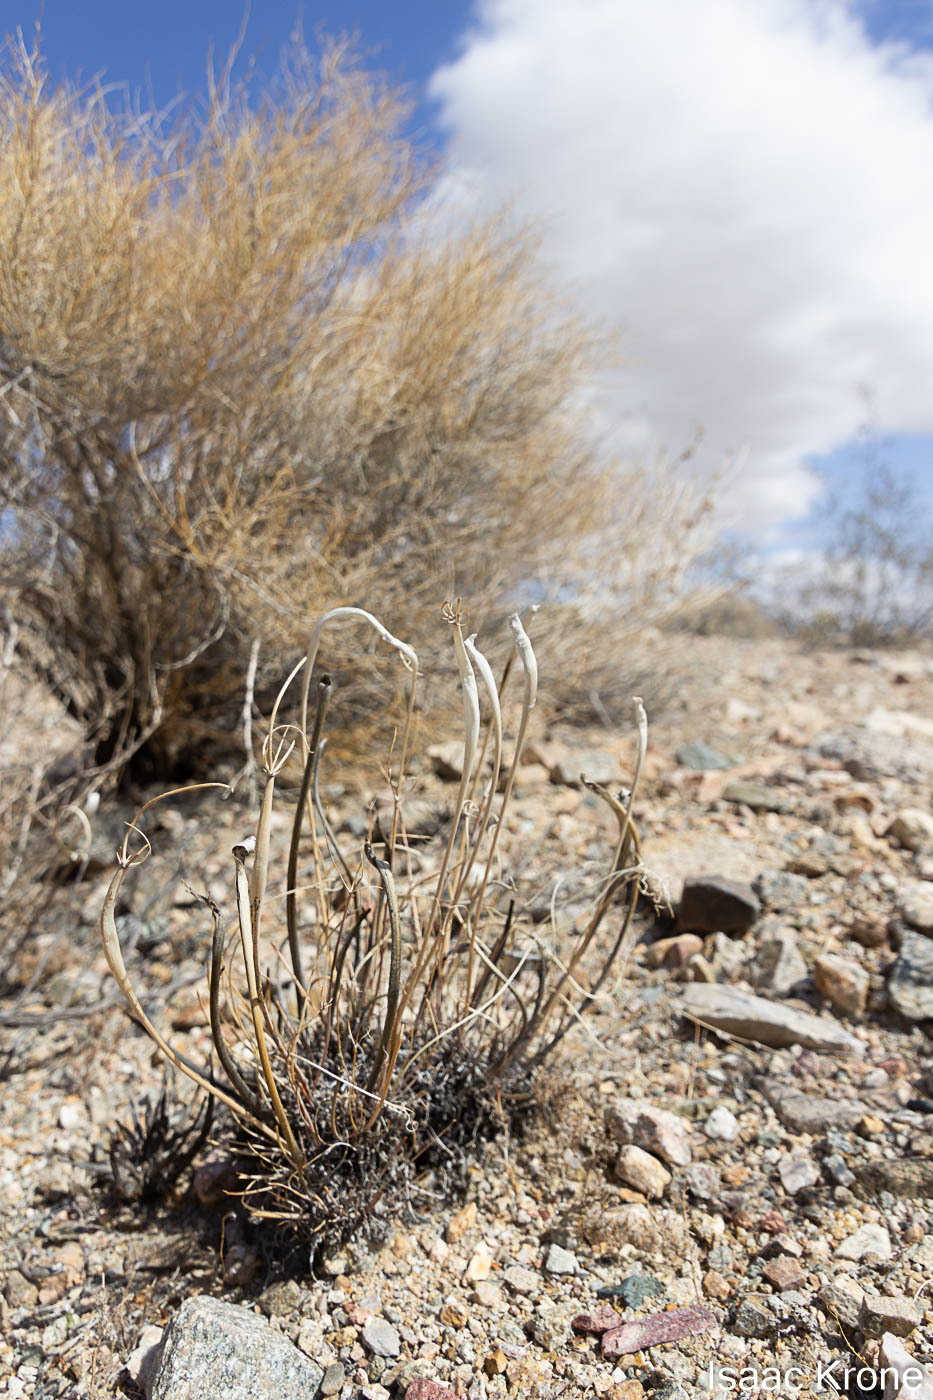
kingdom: Plantae
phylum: Tracheophyta
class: Magnoliopsida
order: Caryophyllales
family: Polygonaceae
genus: Eriogonum
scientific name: Eriogonum inflatum
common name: Desert trumpet
